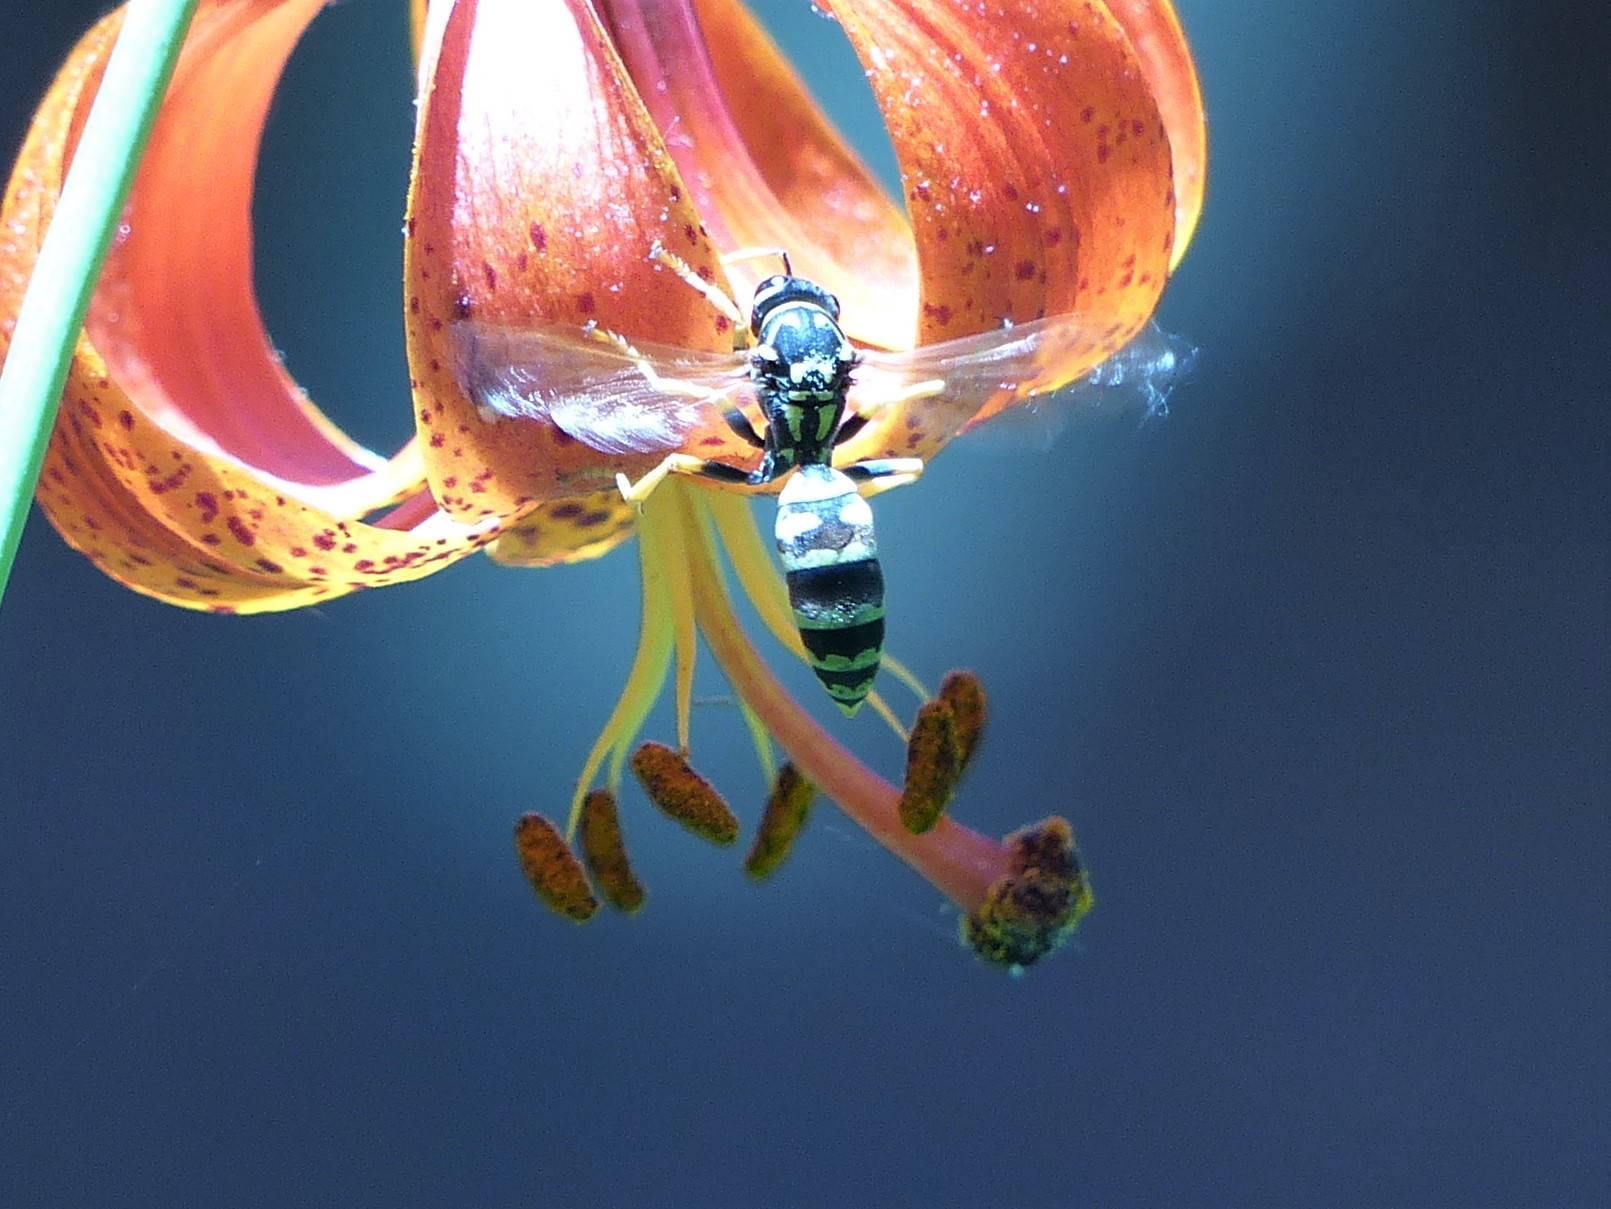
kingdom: Animalia
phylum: Arthropoda
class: Insecta
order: Hymenoptera
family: Eumenidae
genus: Polistes
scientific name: Polistes dominula
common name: Paper wasp
